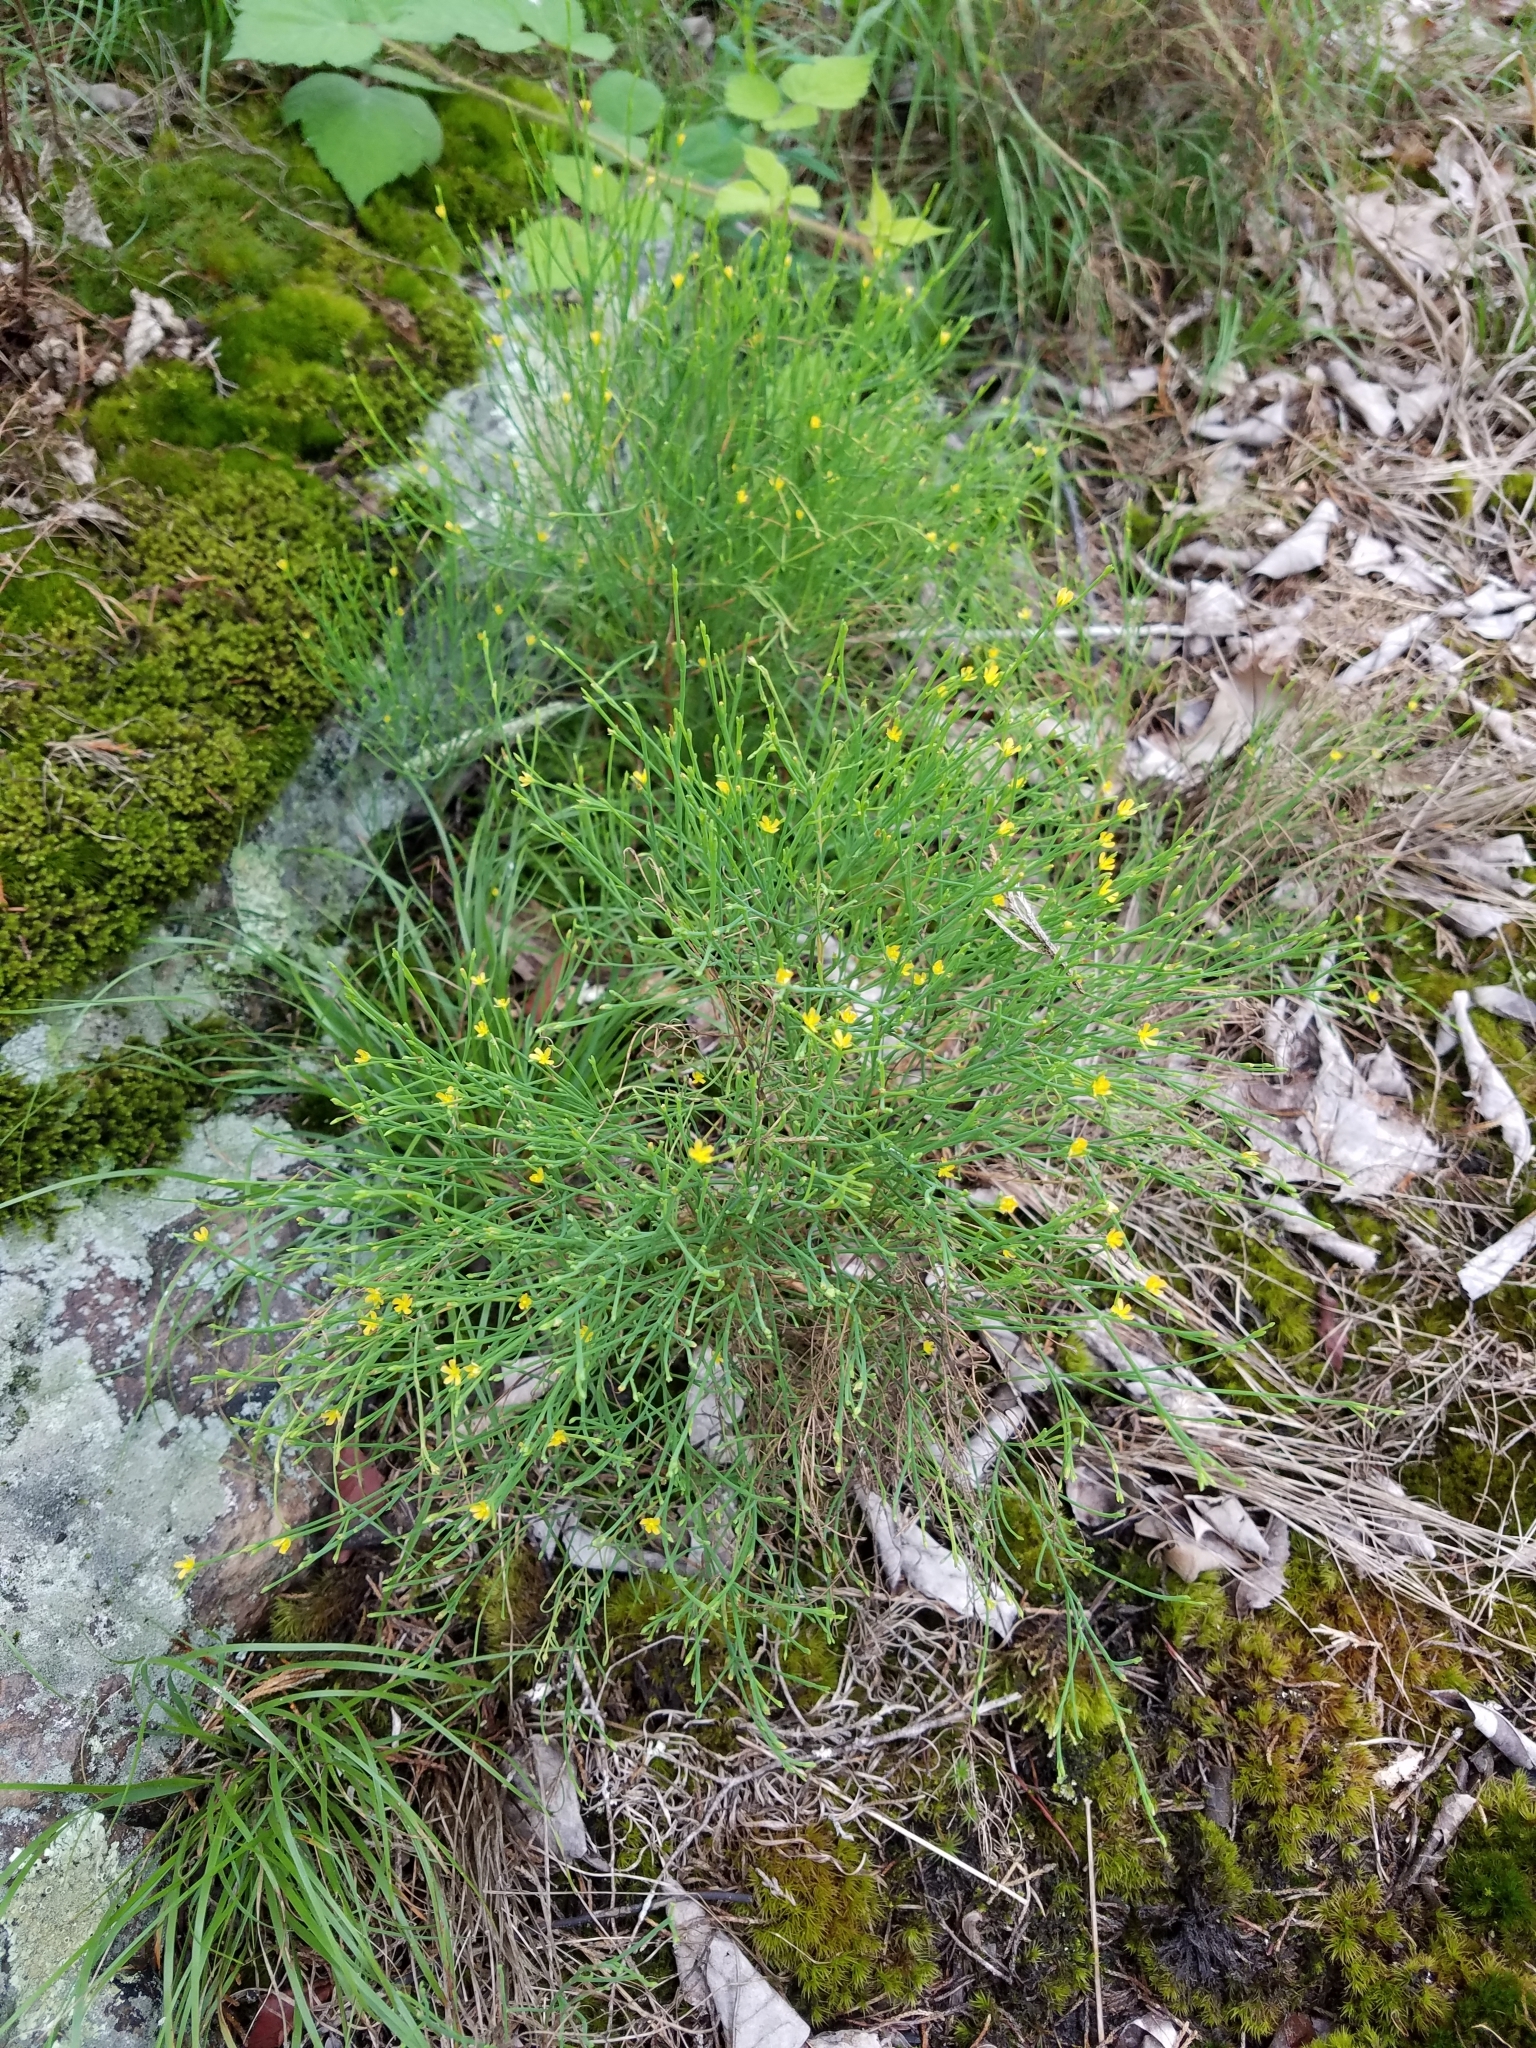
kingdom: Plantae
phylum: Tracheophyta
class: Magnoliopsida
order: Malpighiales
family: Hypericaceae
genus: Hypericum
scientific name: Hypericum gentianoides
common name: Gentian-leaved st. john's-wort
